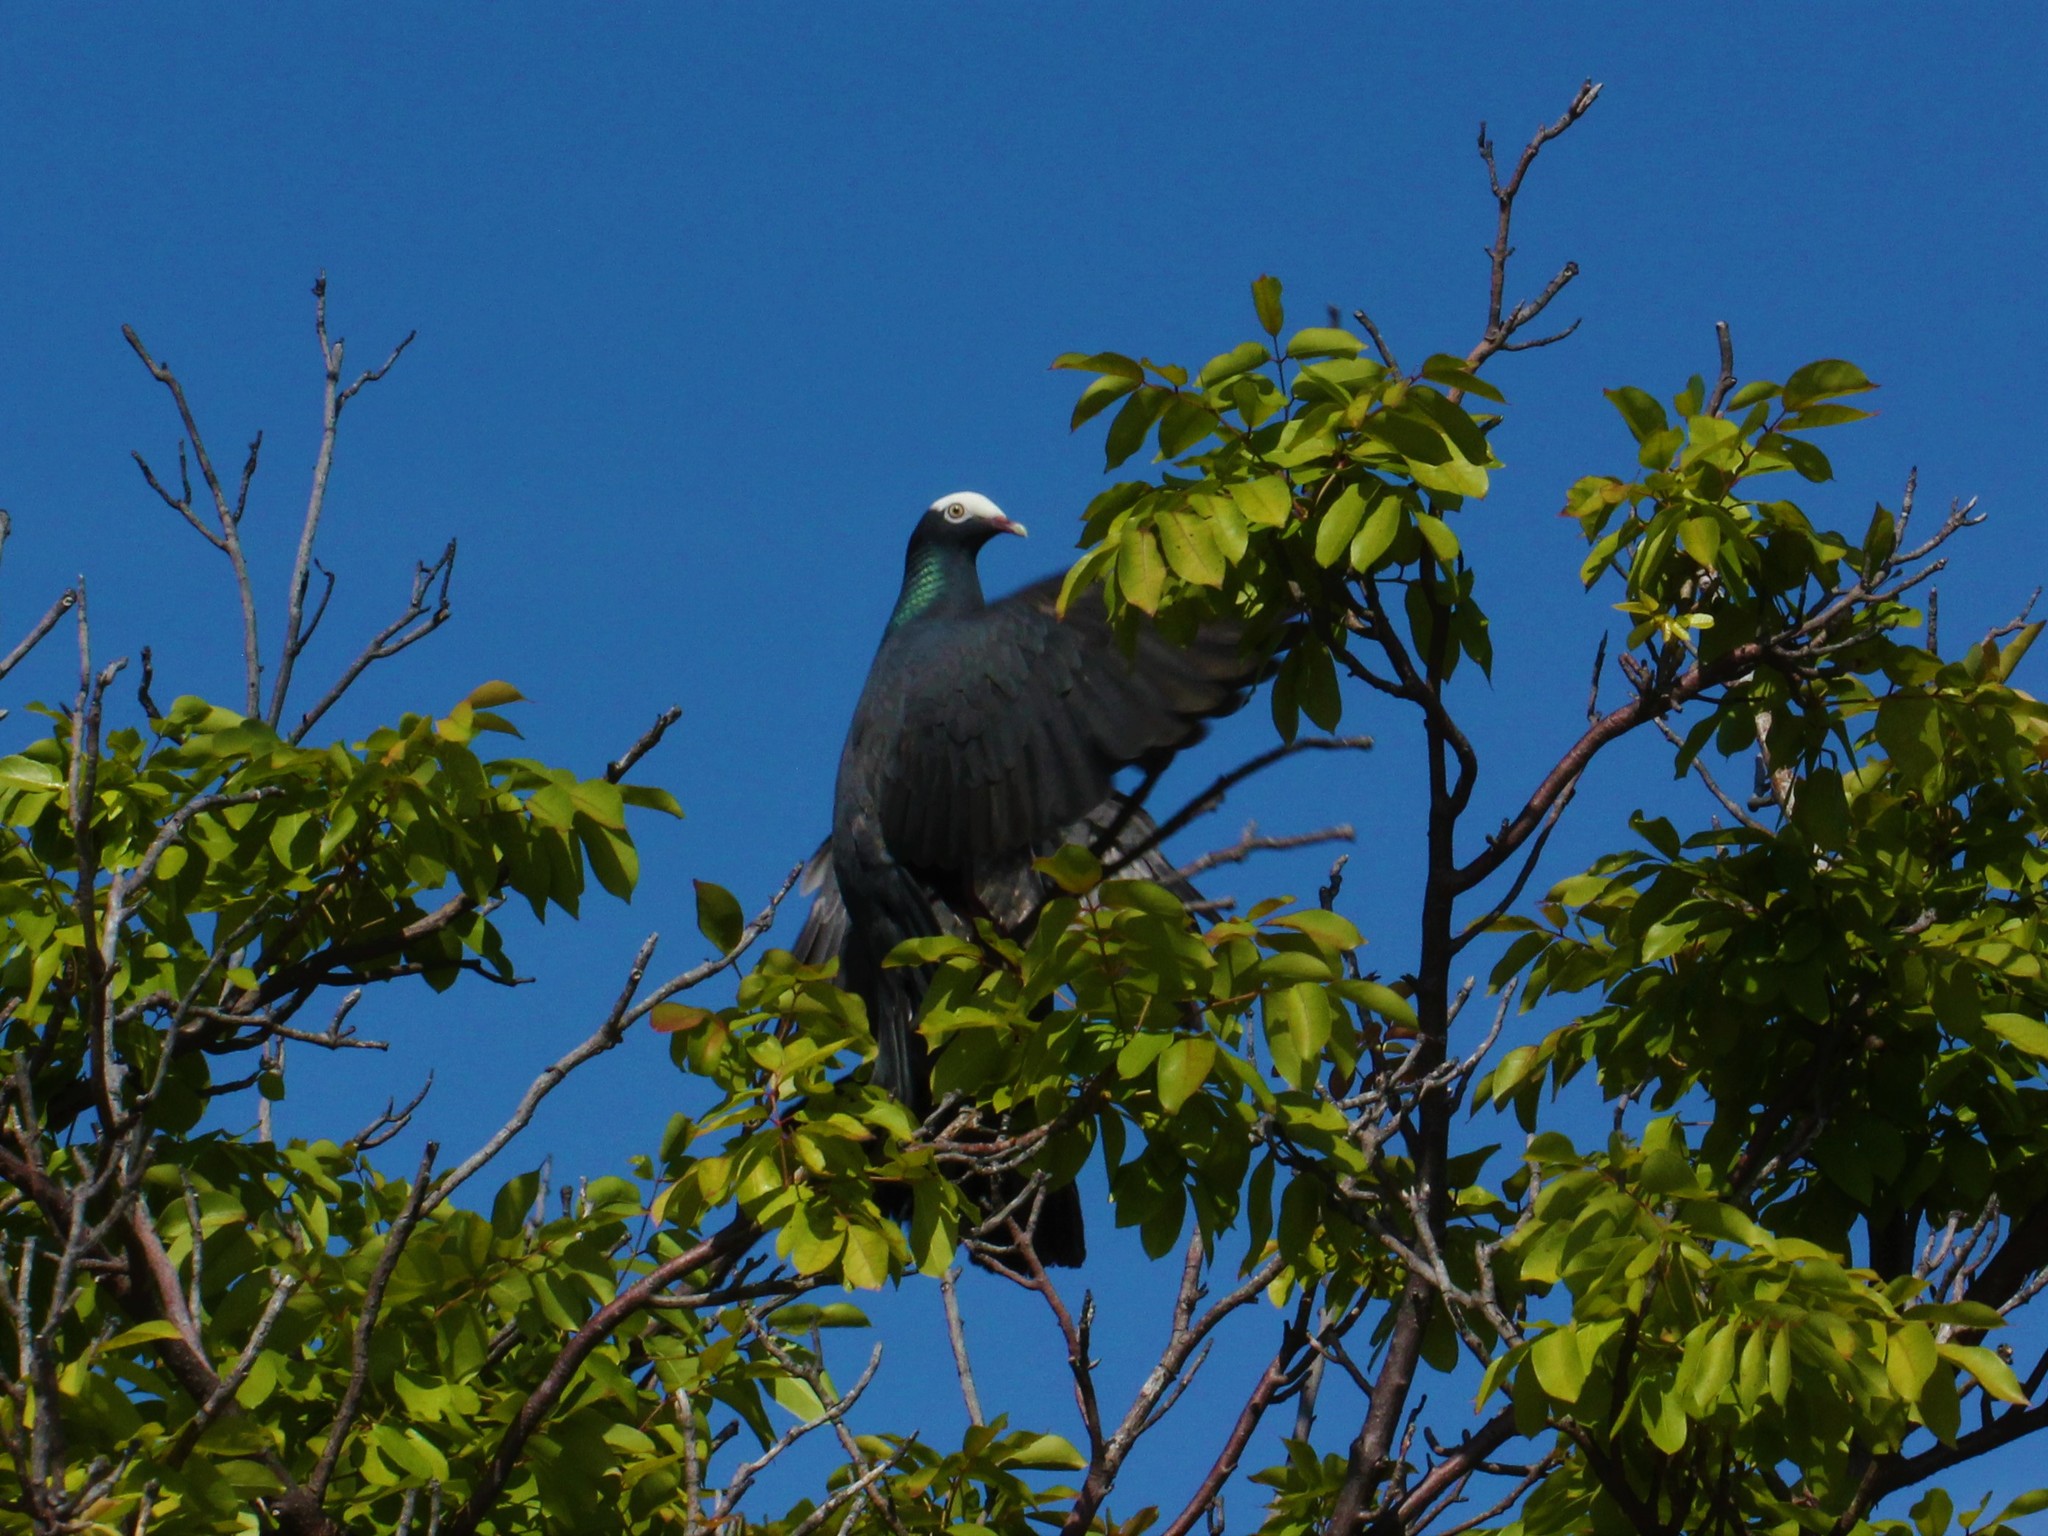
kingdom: Animalia
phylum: Chordata
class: Aves
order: Columbiformes
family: Columbidae
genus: Patagioenas
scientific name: Patagioenas leucocephala
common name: White-crowned pigeon
